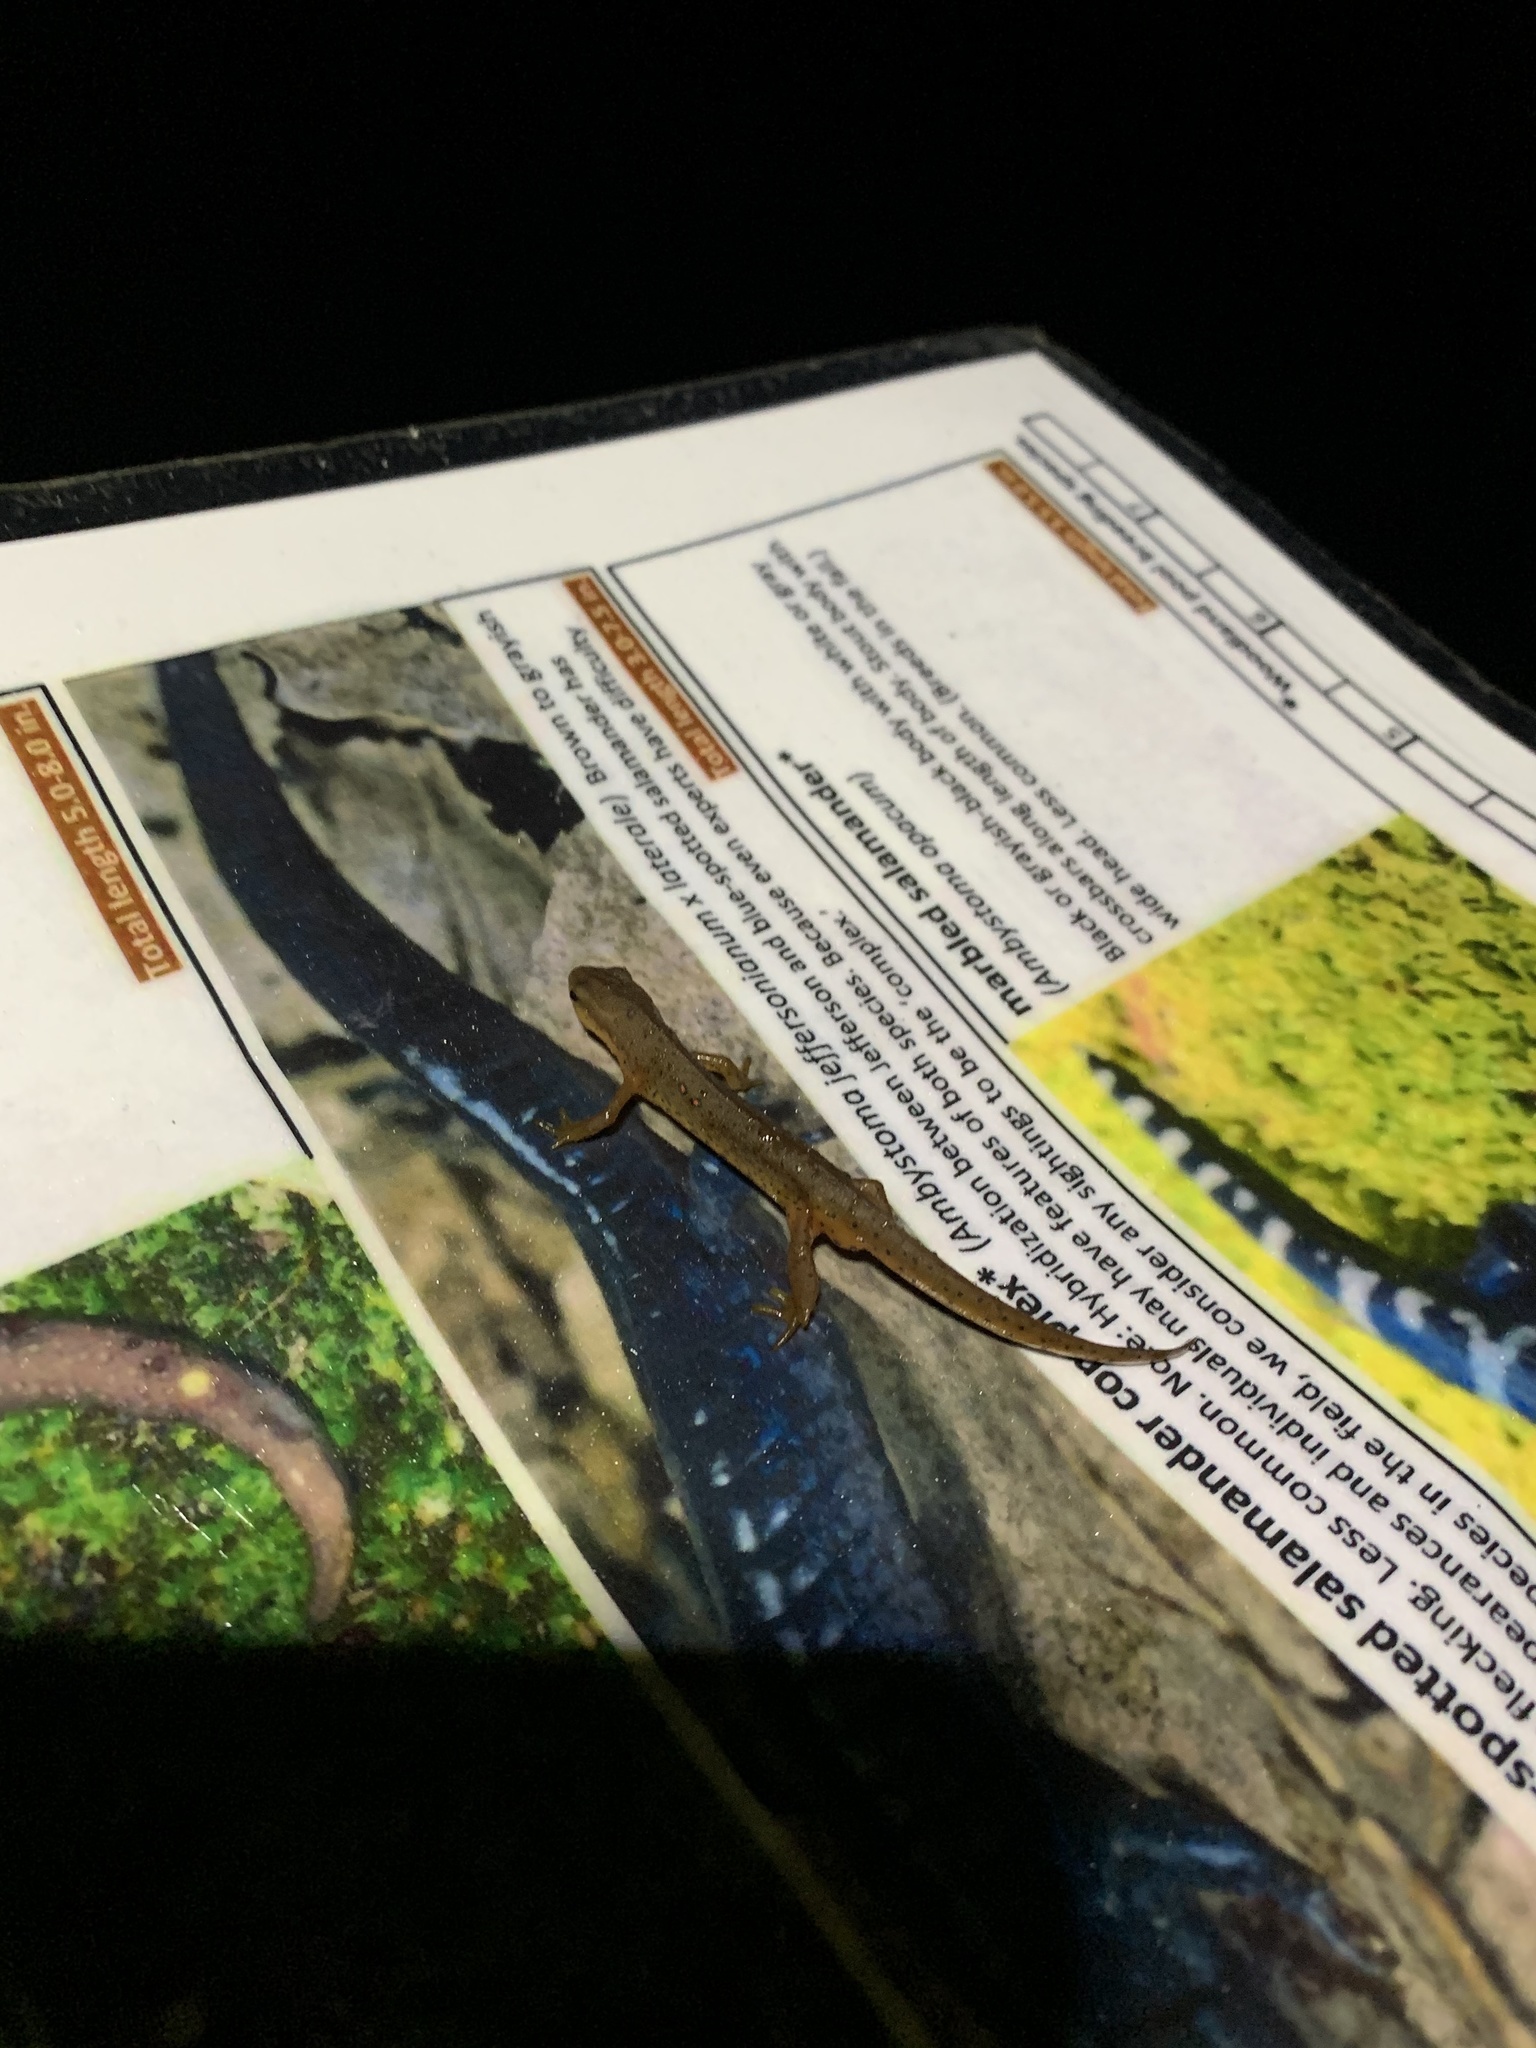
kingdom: Animalia
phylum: Chordata
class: Amphibia
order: Caudata
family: Salamandridae
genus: Notophthalmus
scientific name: Notophthalmus viridescens
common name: Eastern newt
